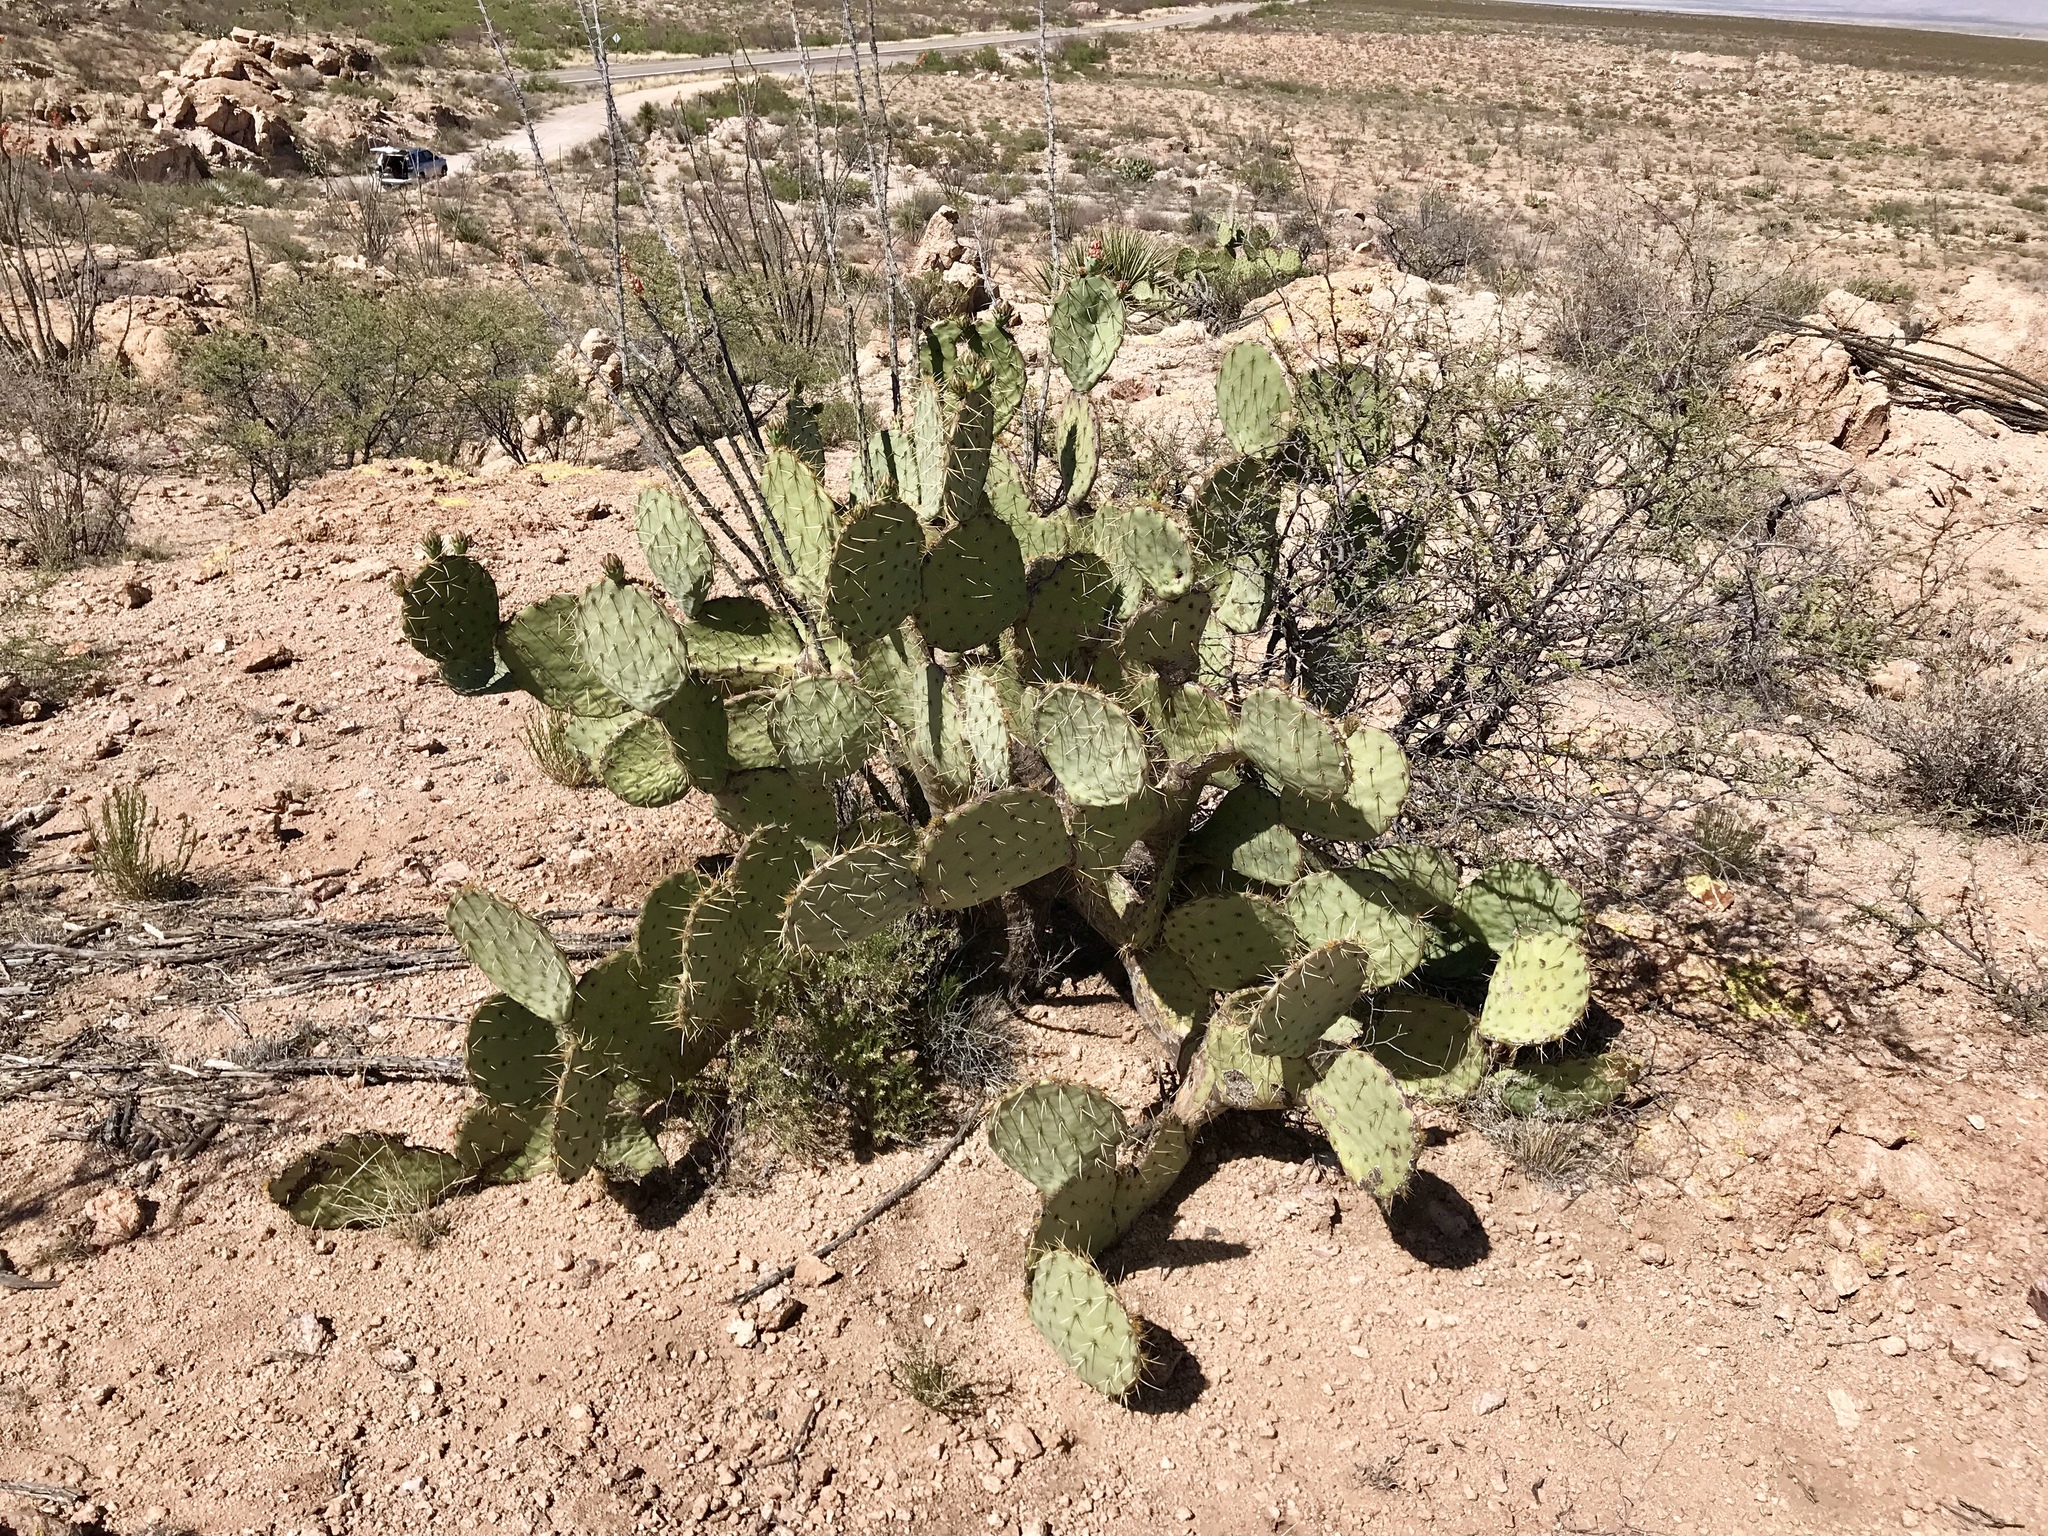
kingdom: Plantae
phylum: Tracheophyta
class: Magnoliopsida
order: Caryophyllales
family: Cactaceae
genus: Opuntia
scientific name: Opuntia engelmannii
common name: Cactus-apple
